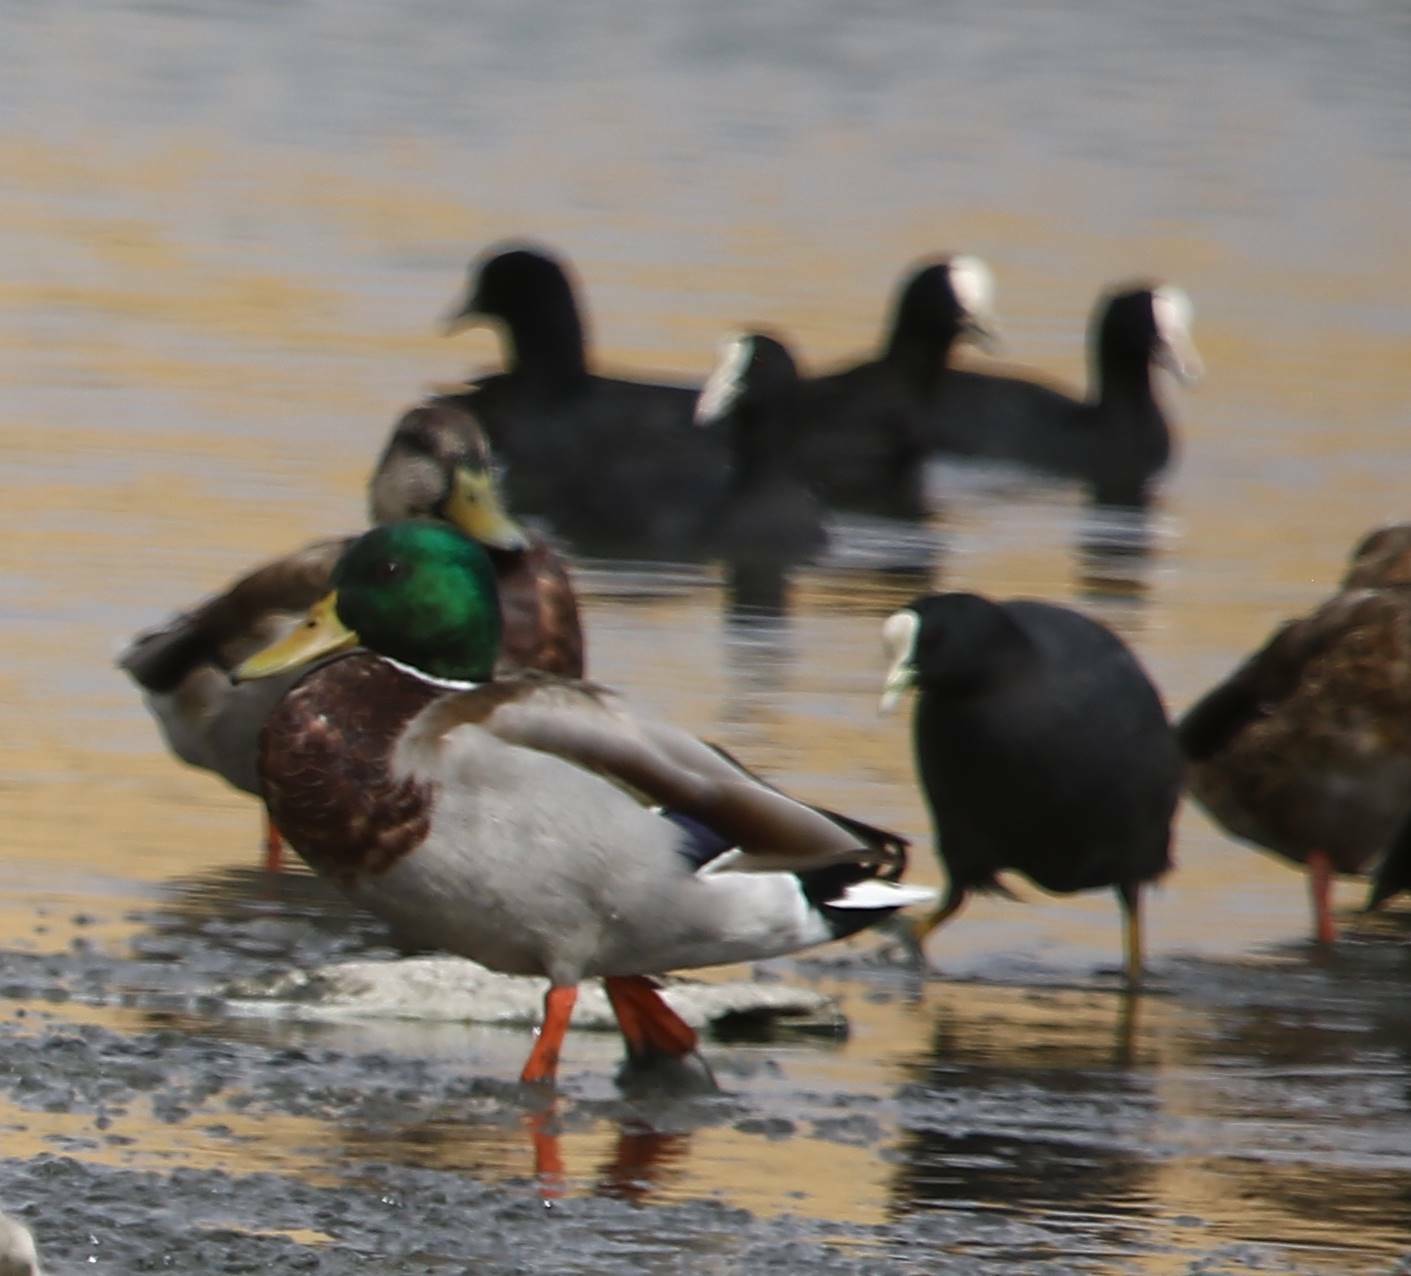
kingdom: Animalia
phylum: Chordata
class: Aves
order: Anseriformes
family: Anatidae
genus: Anas
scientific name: Anas platyrhynchos
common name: Mallard
